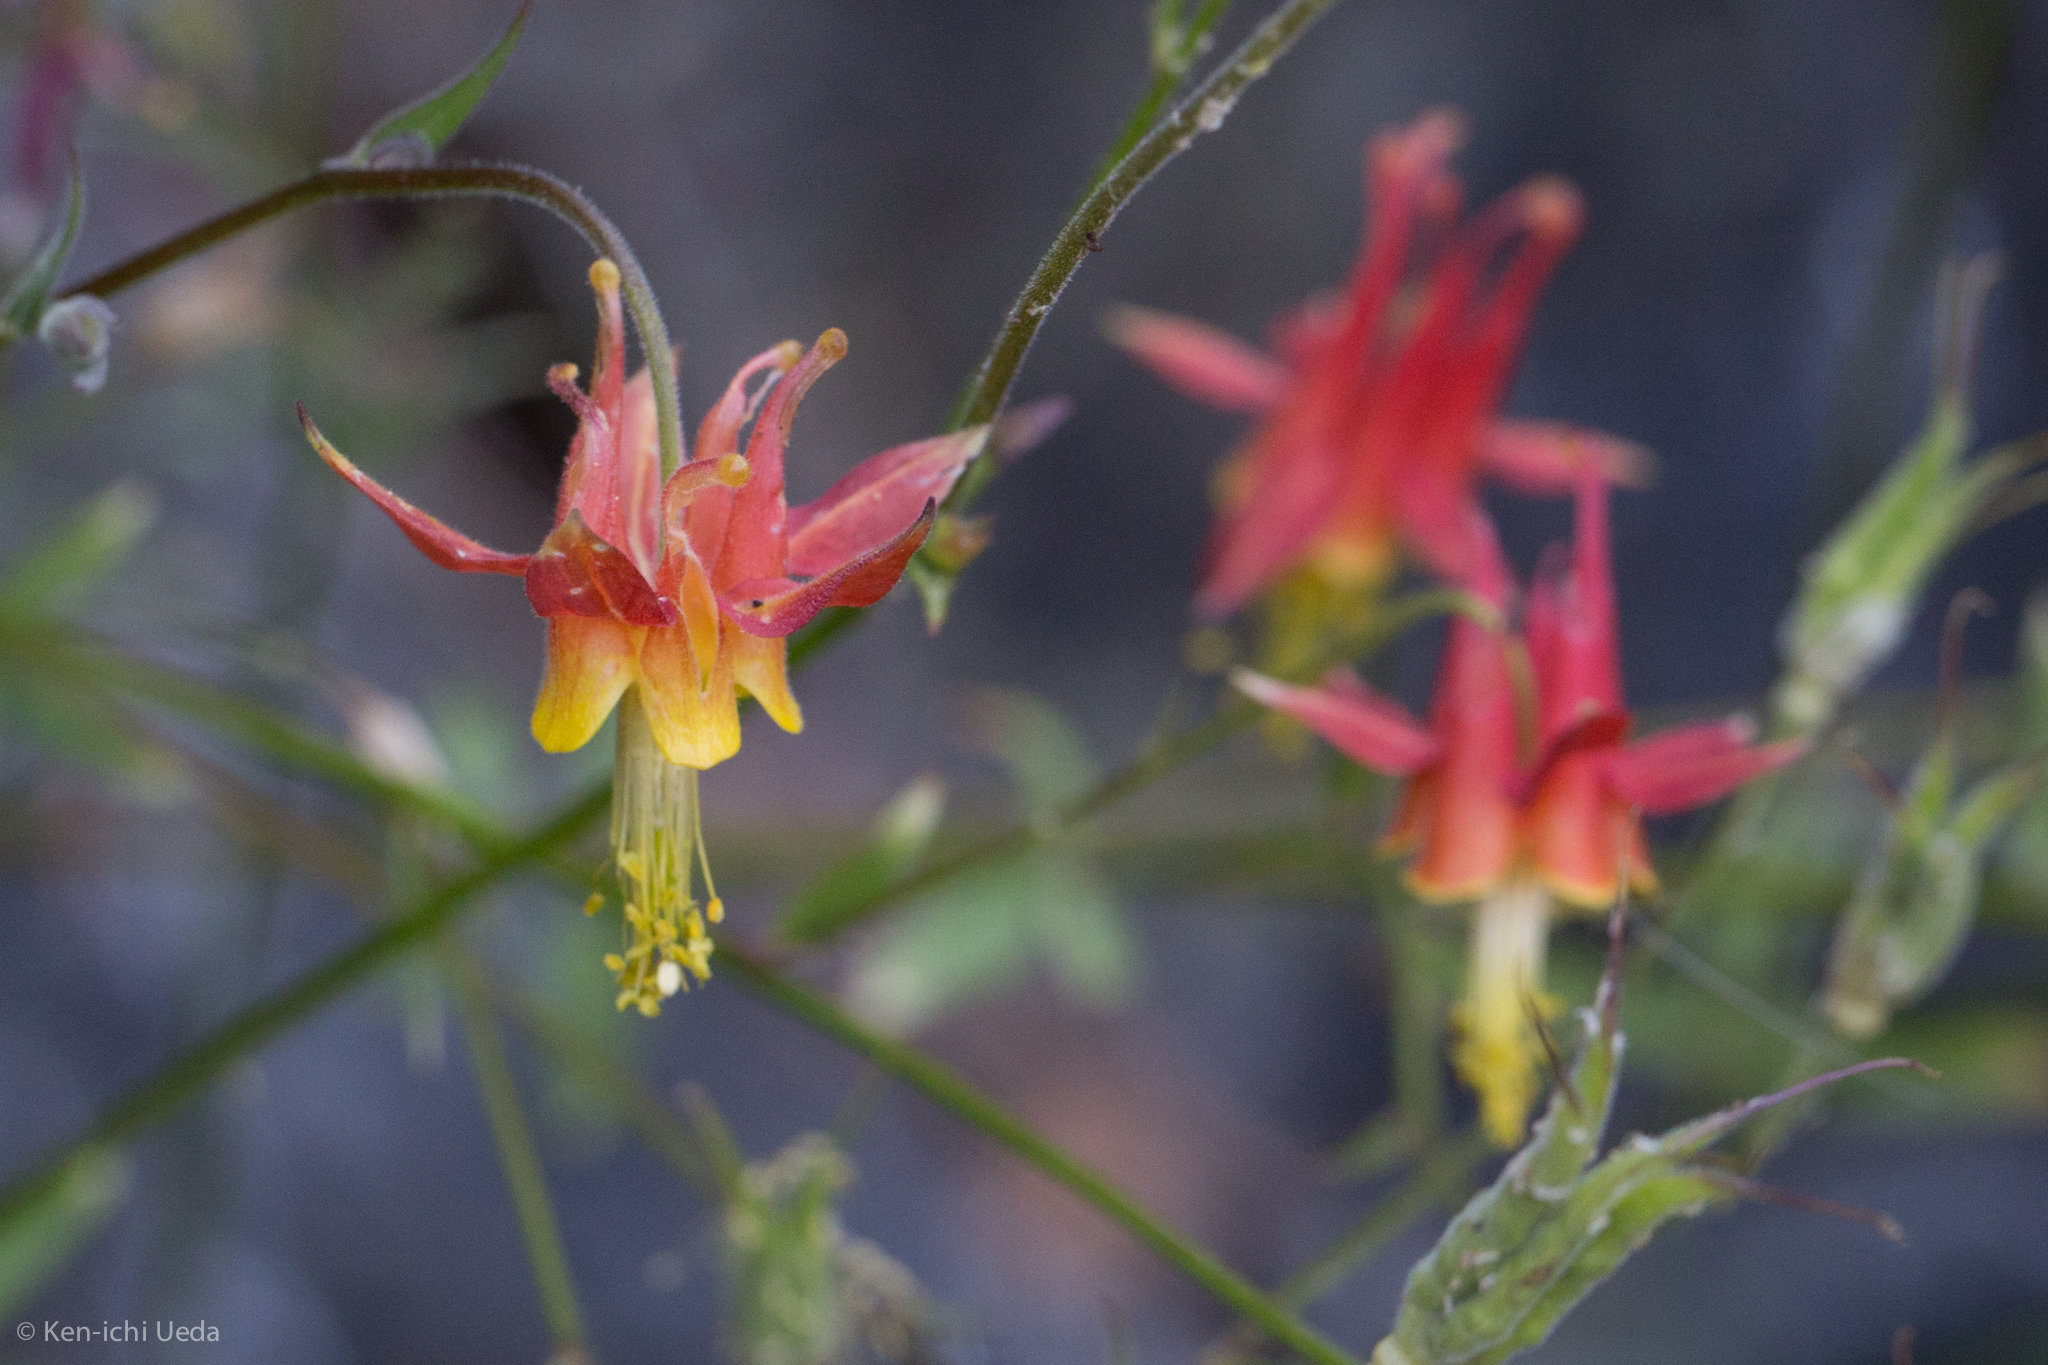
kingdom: Plantae
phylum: Tracheophyta
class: Magnoliopsida
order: Ranunculales
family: Ranunculaceae
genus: Aquilegia
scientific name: Aquilegia formosa
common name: Sitka columbine
